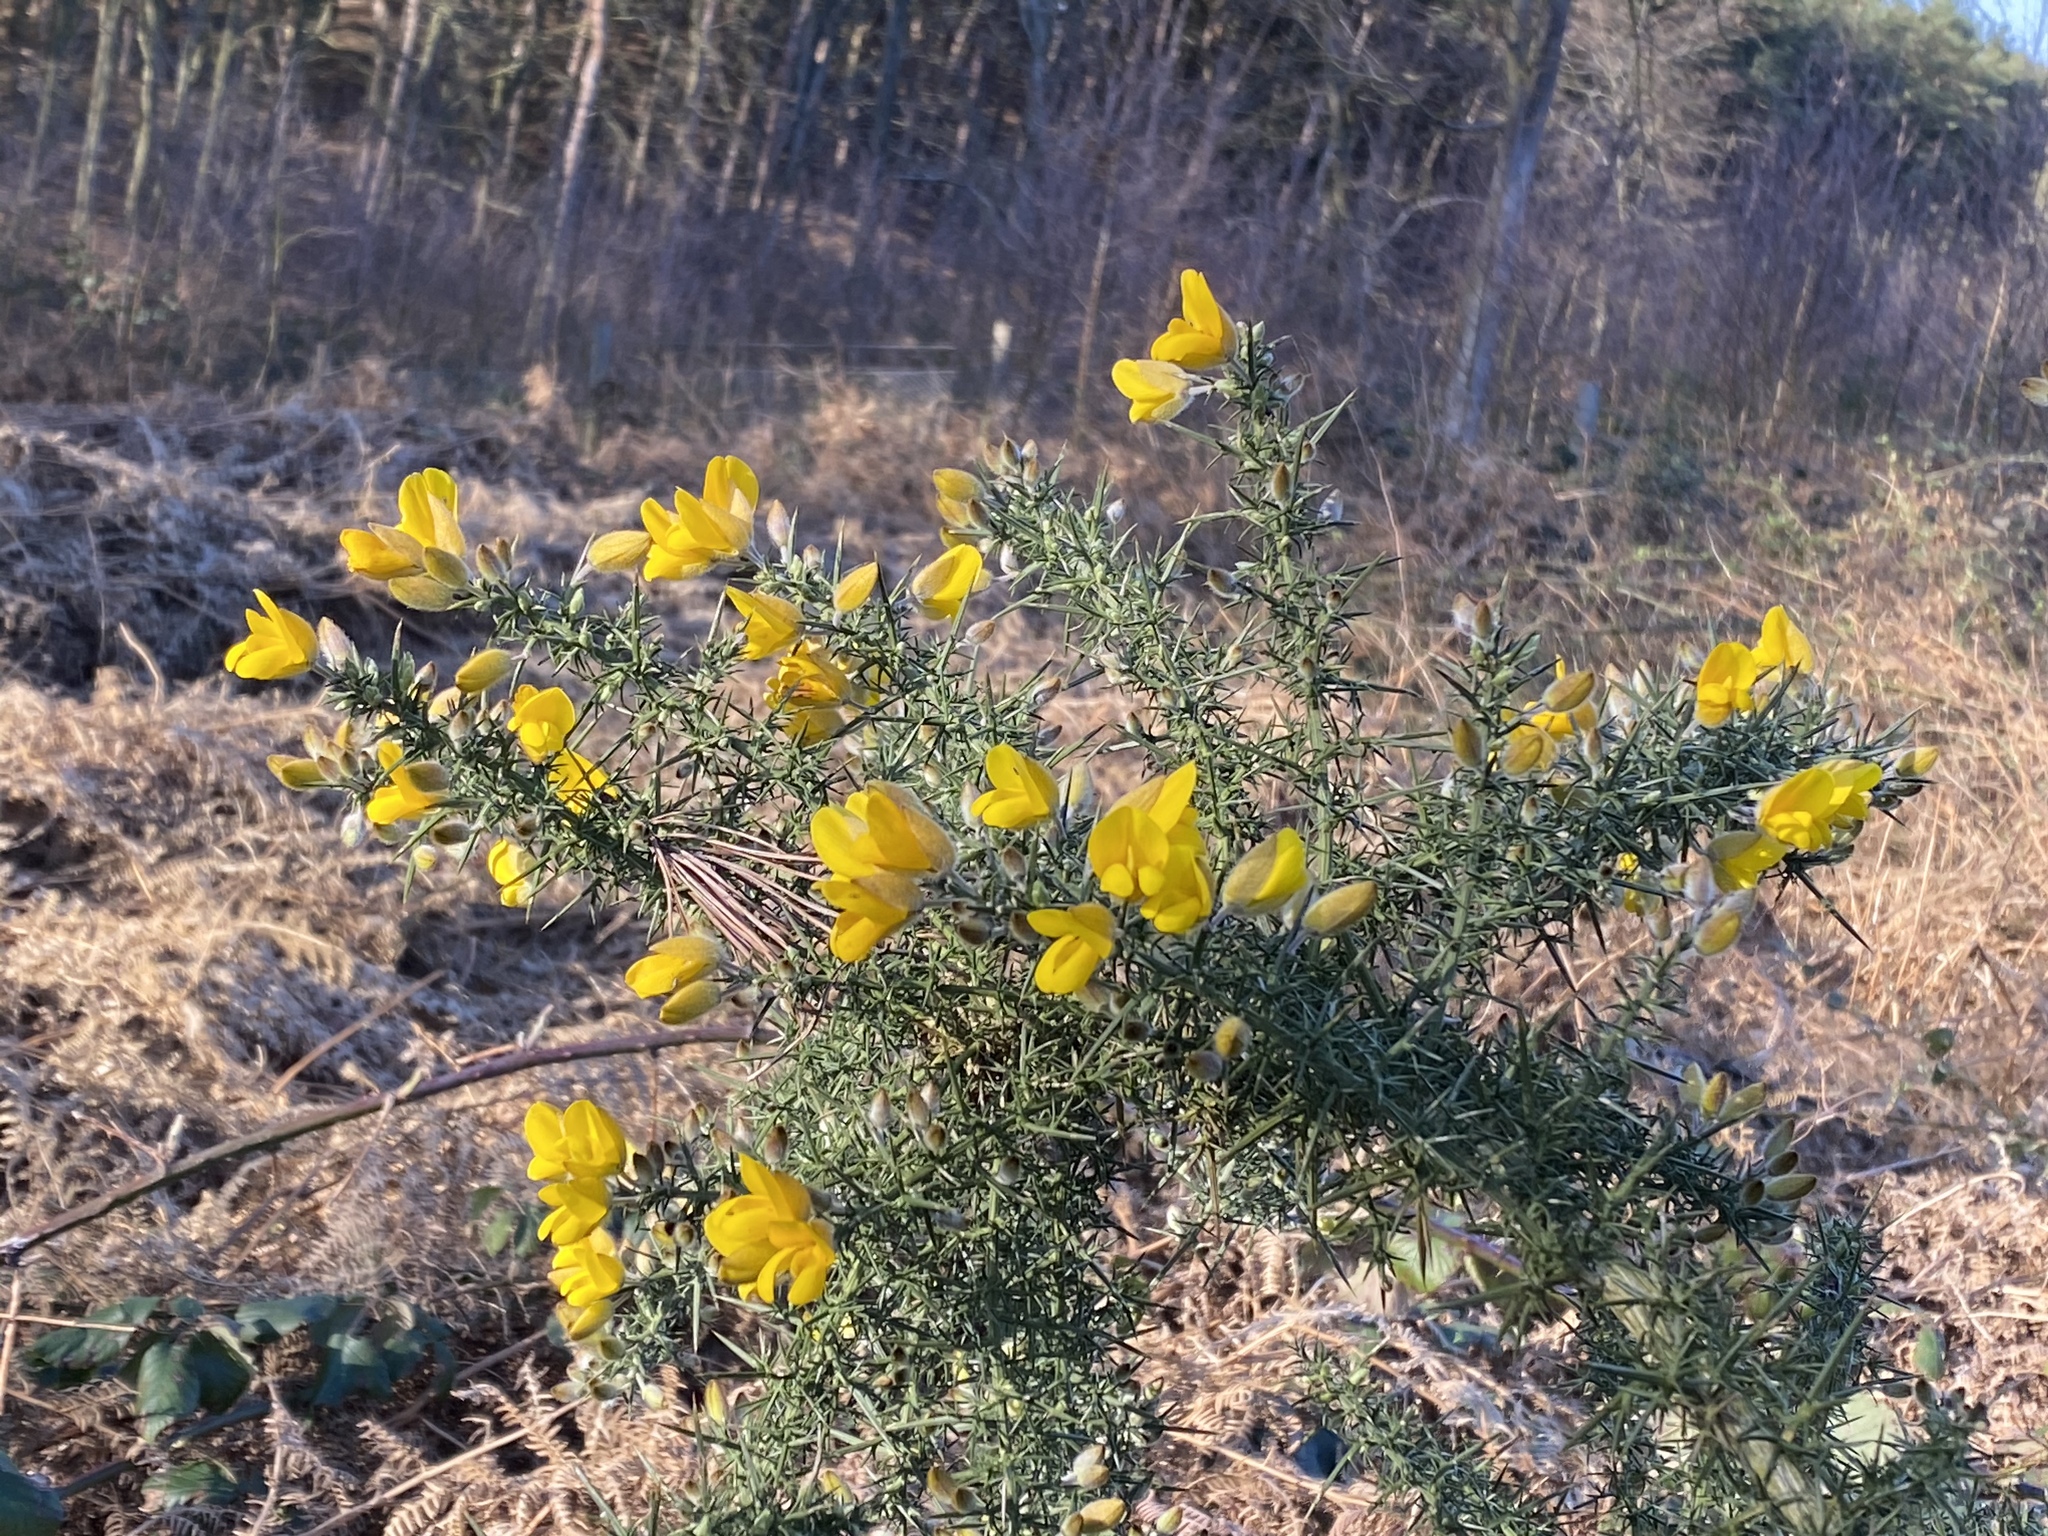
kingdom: Plantae
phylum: Tracheophyta
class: Magnoliopsida
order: Fabales
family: Fabaceae
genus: Ulex
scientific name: Ulex europaeus
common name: Common gorse
